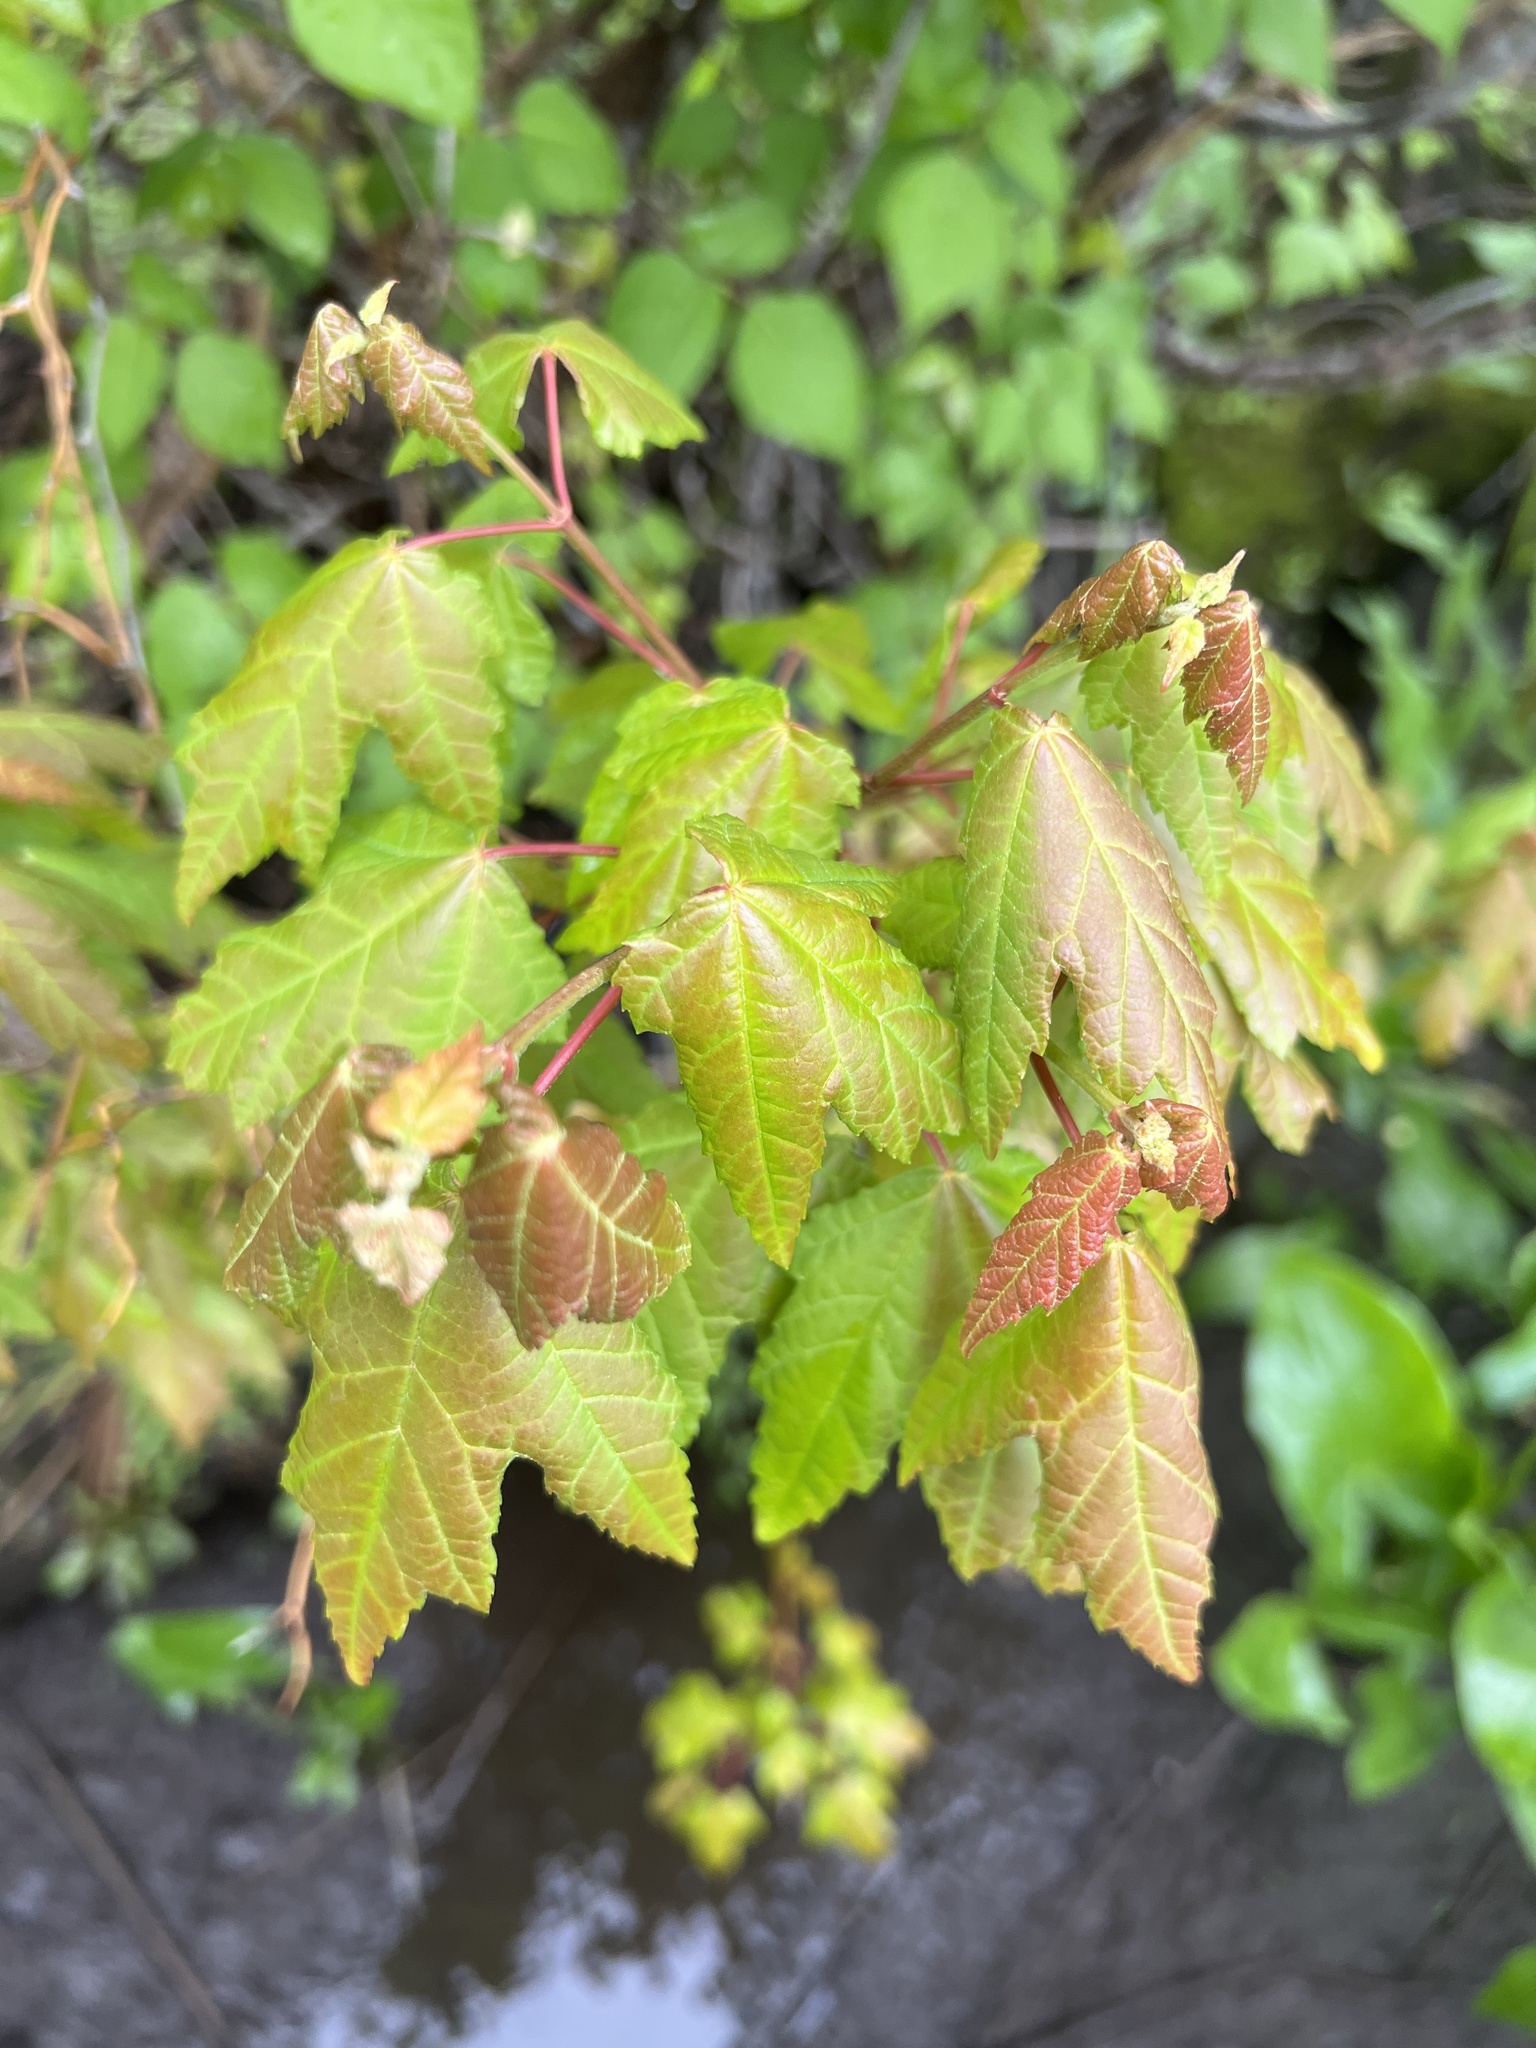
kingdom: Plantae
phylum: Tracheophyta
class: Magnoliopsida
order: Sapindales
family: Sapindaceae
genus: Acer
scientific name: Acer rubrum
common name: Red maple
